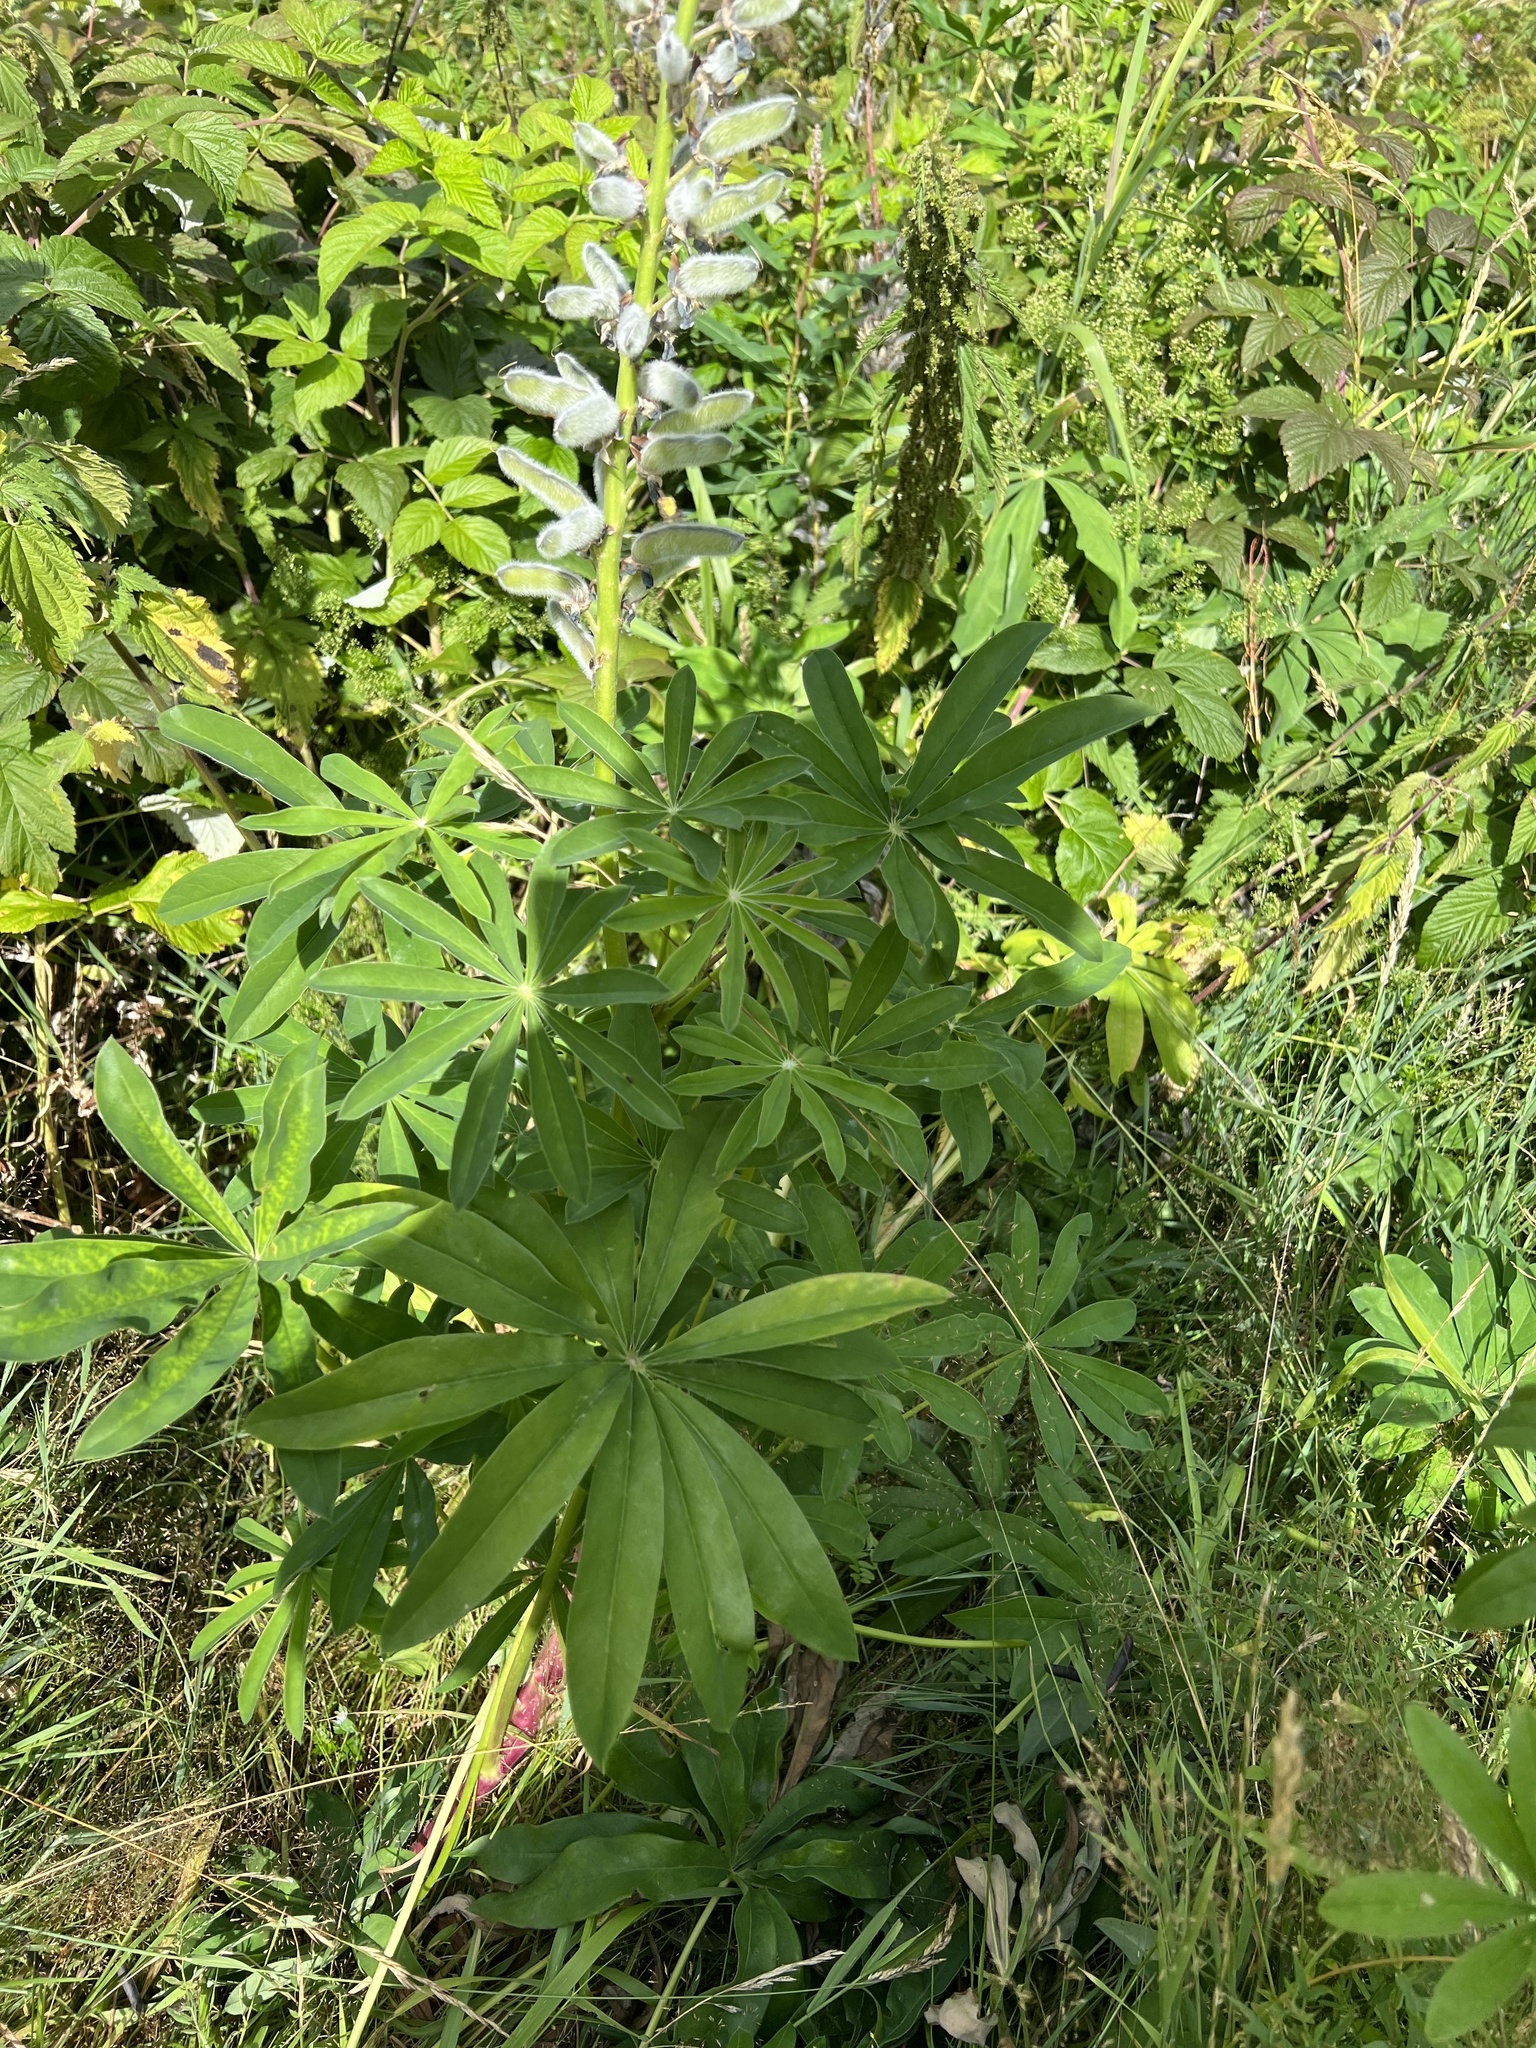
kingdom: Plantae
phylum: Tracheophyta
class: Magnoliopsida
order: Fabales
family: Fabaceae
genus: Lupinus
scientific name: Lupinus polyphyllus
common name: Garden lupin
